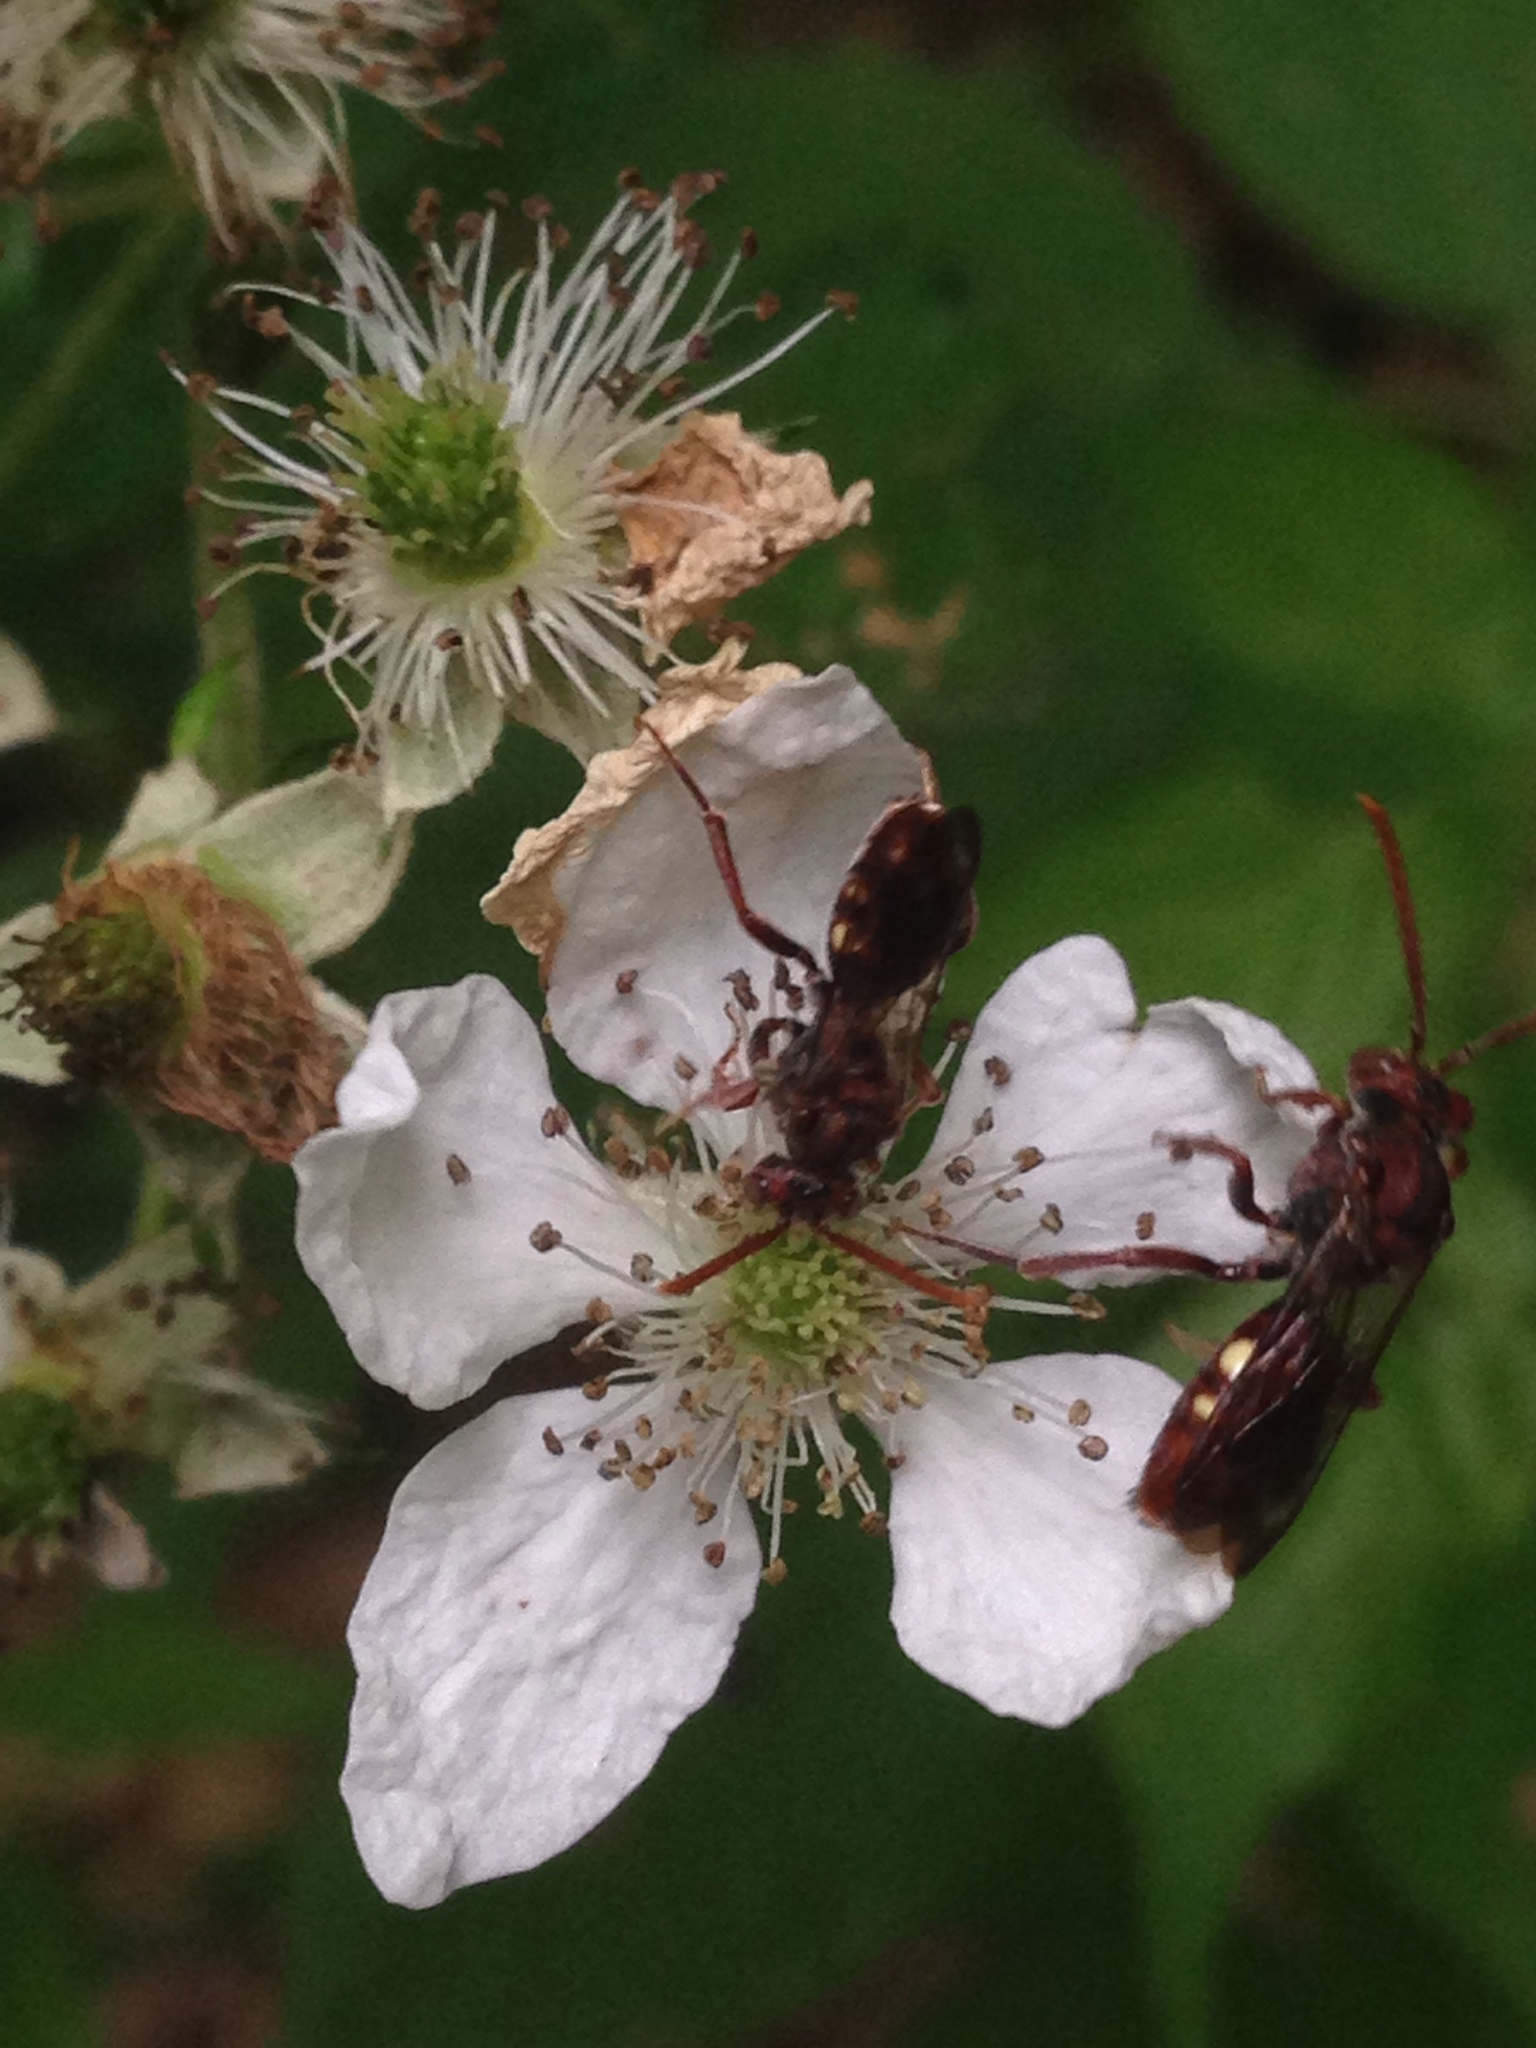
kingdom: Animalia
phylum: Arthropoda
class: Insecta
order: Hymenoptera
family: Apidae
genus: Nomada
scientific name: Nomada
